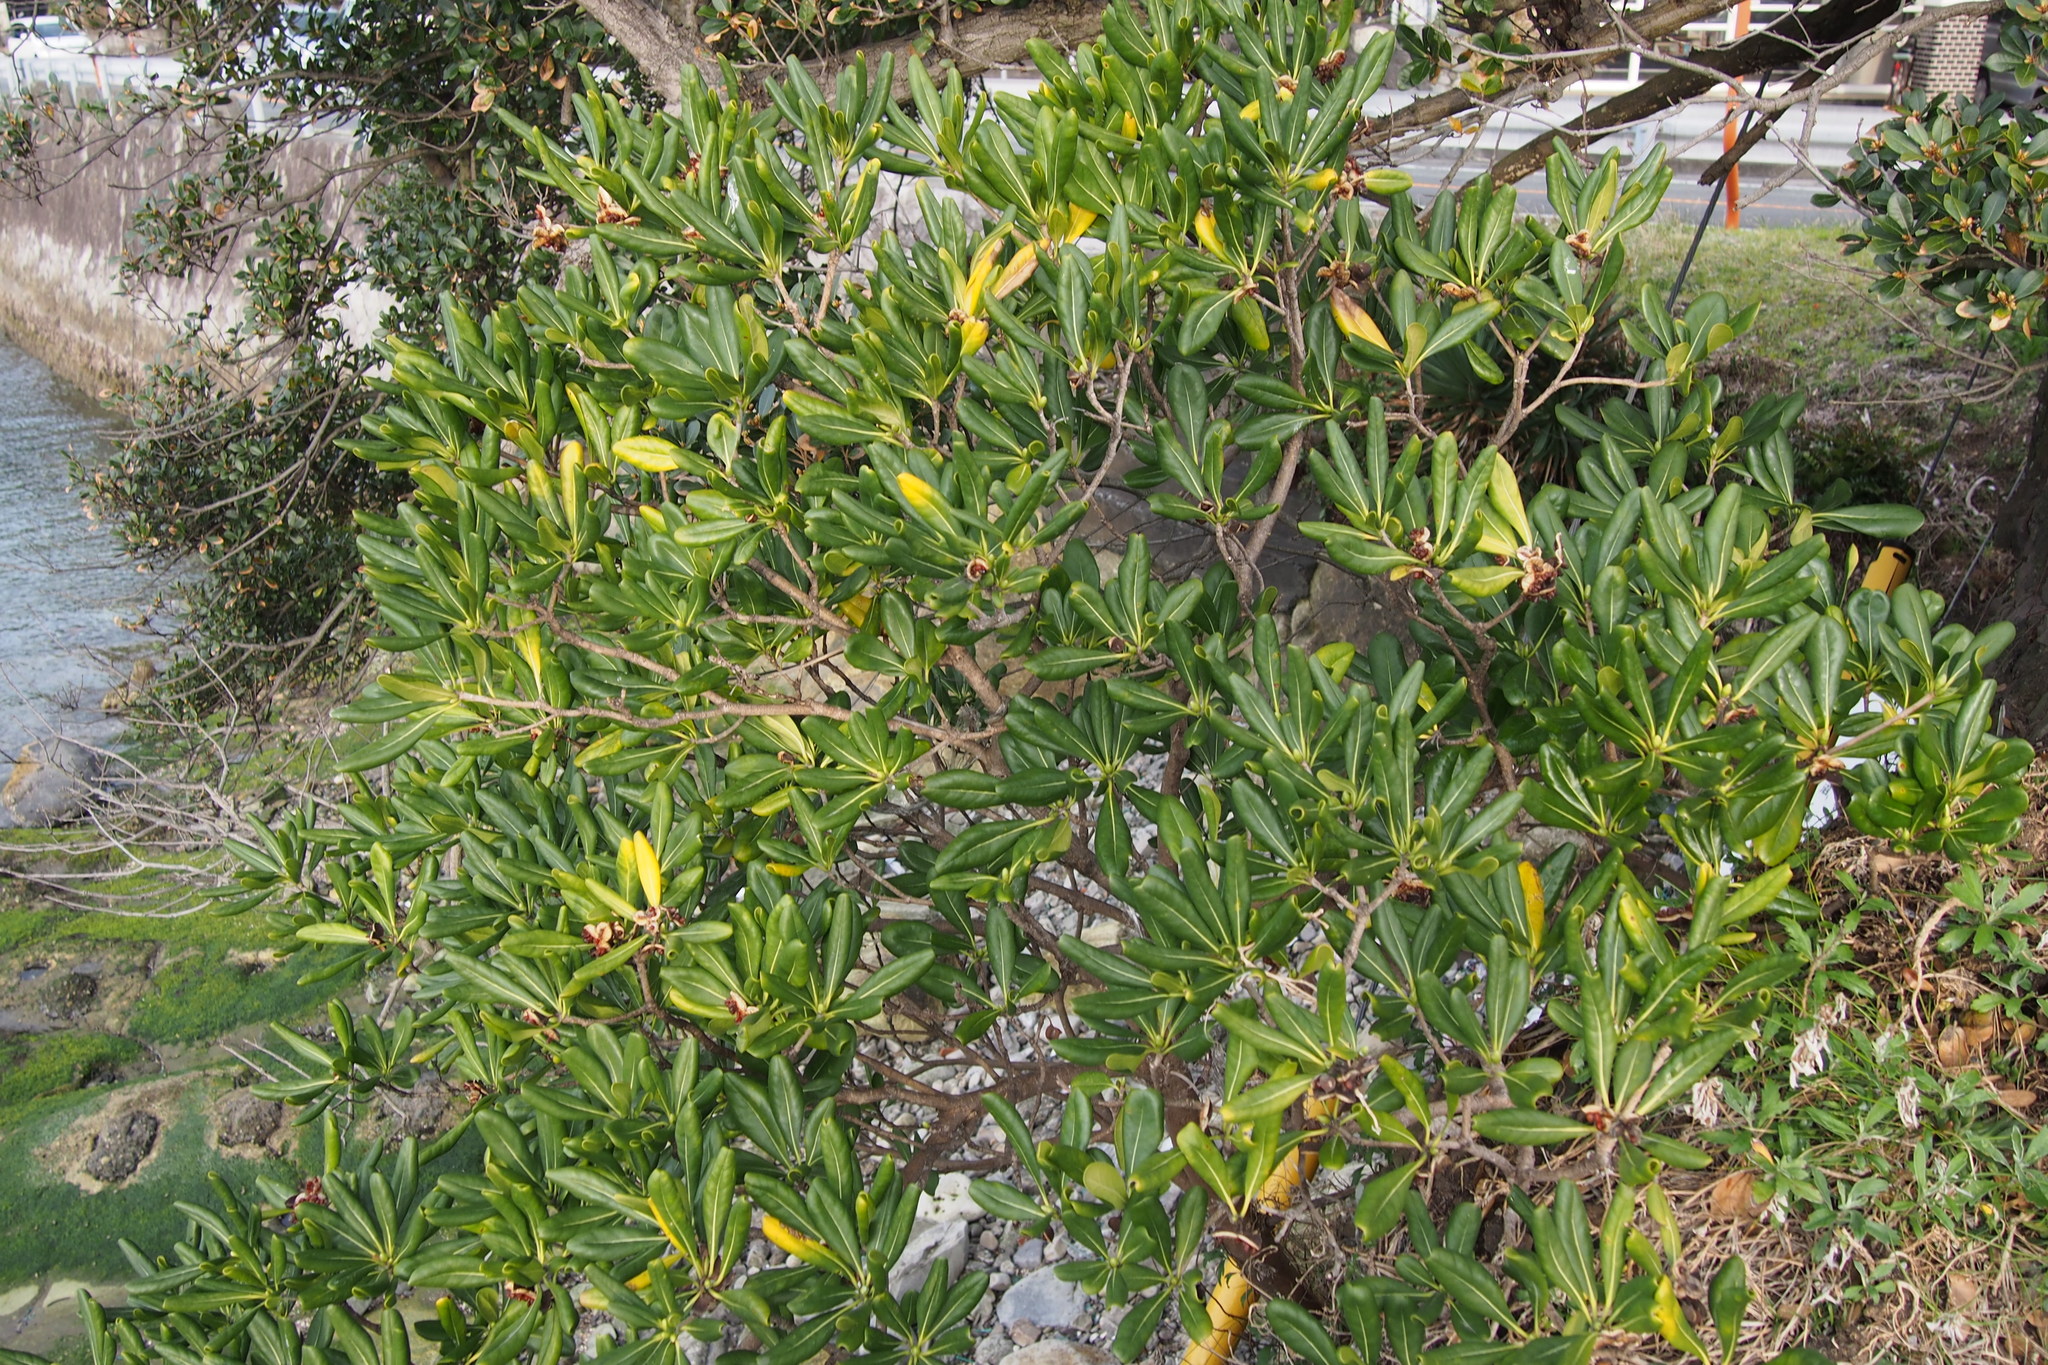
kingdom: Plantae
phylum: Tracheophyta
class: Magnoliopsida
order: Apiales
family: Pittosporaceae
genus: Pittosporum
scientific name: Pittosporum tobira
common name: Japanese cheesewood
